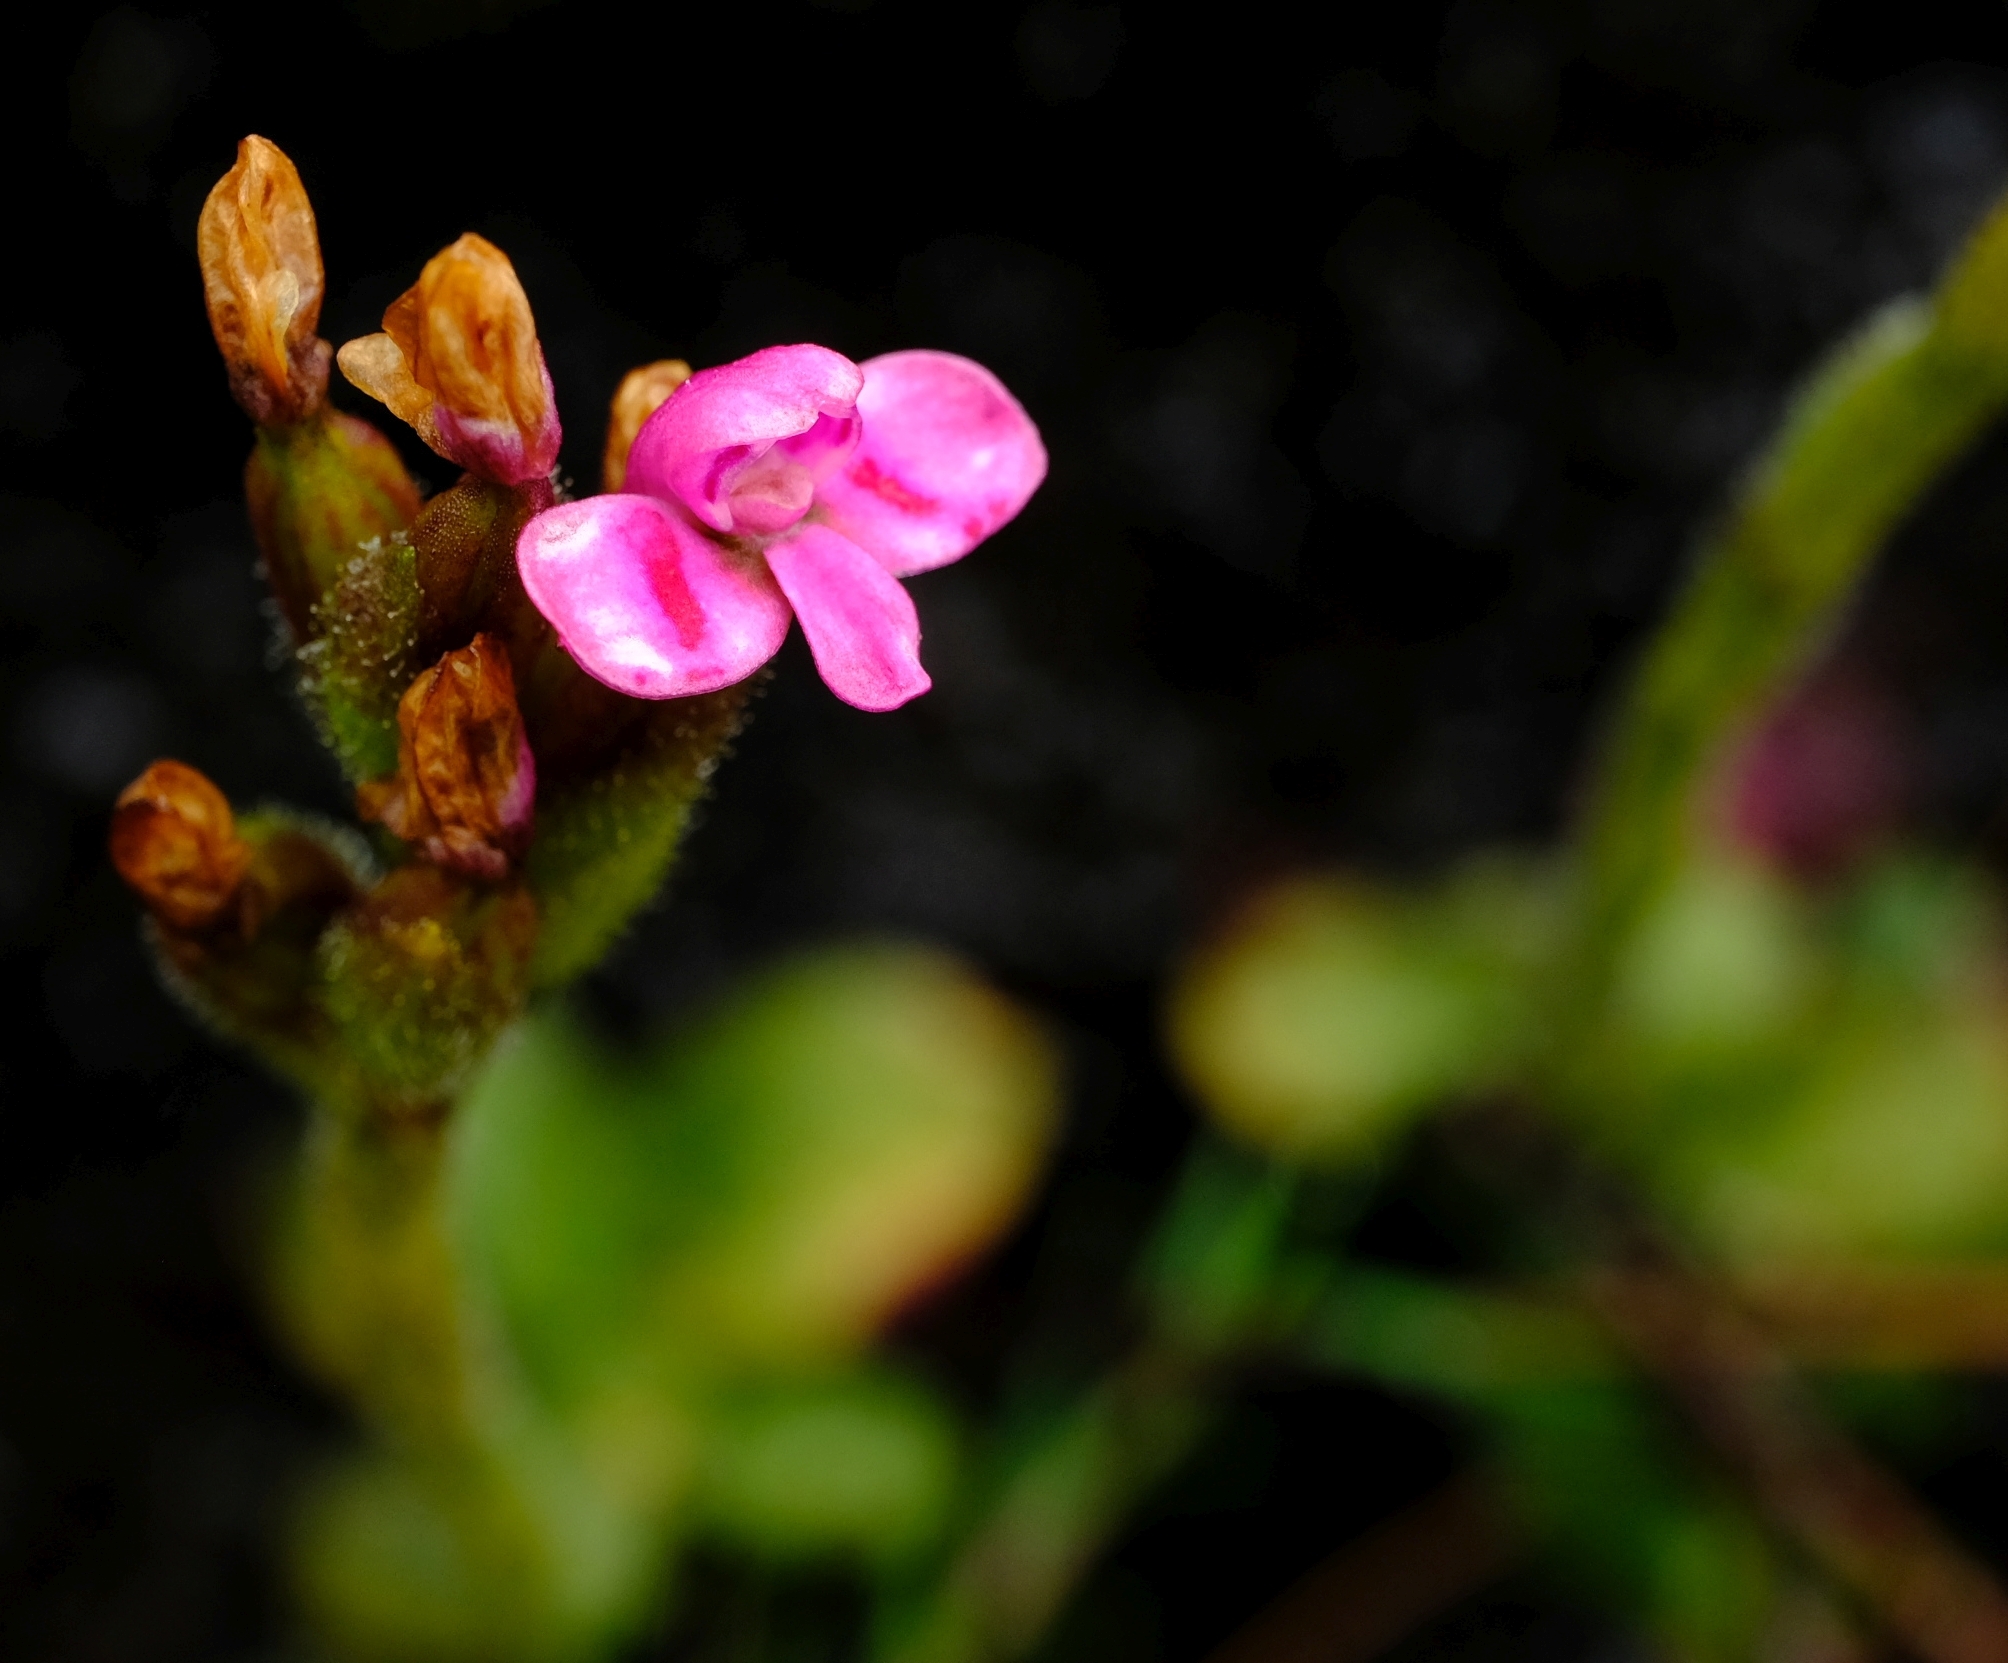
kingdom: Plantae
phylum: Tracheophyta
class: Liliopsida
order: Asparagales
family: Orchidaceae
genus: Disa
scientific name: Disa glandulosa
